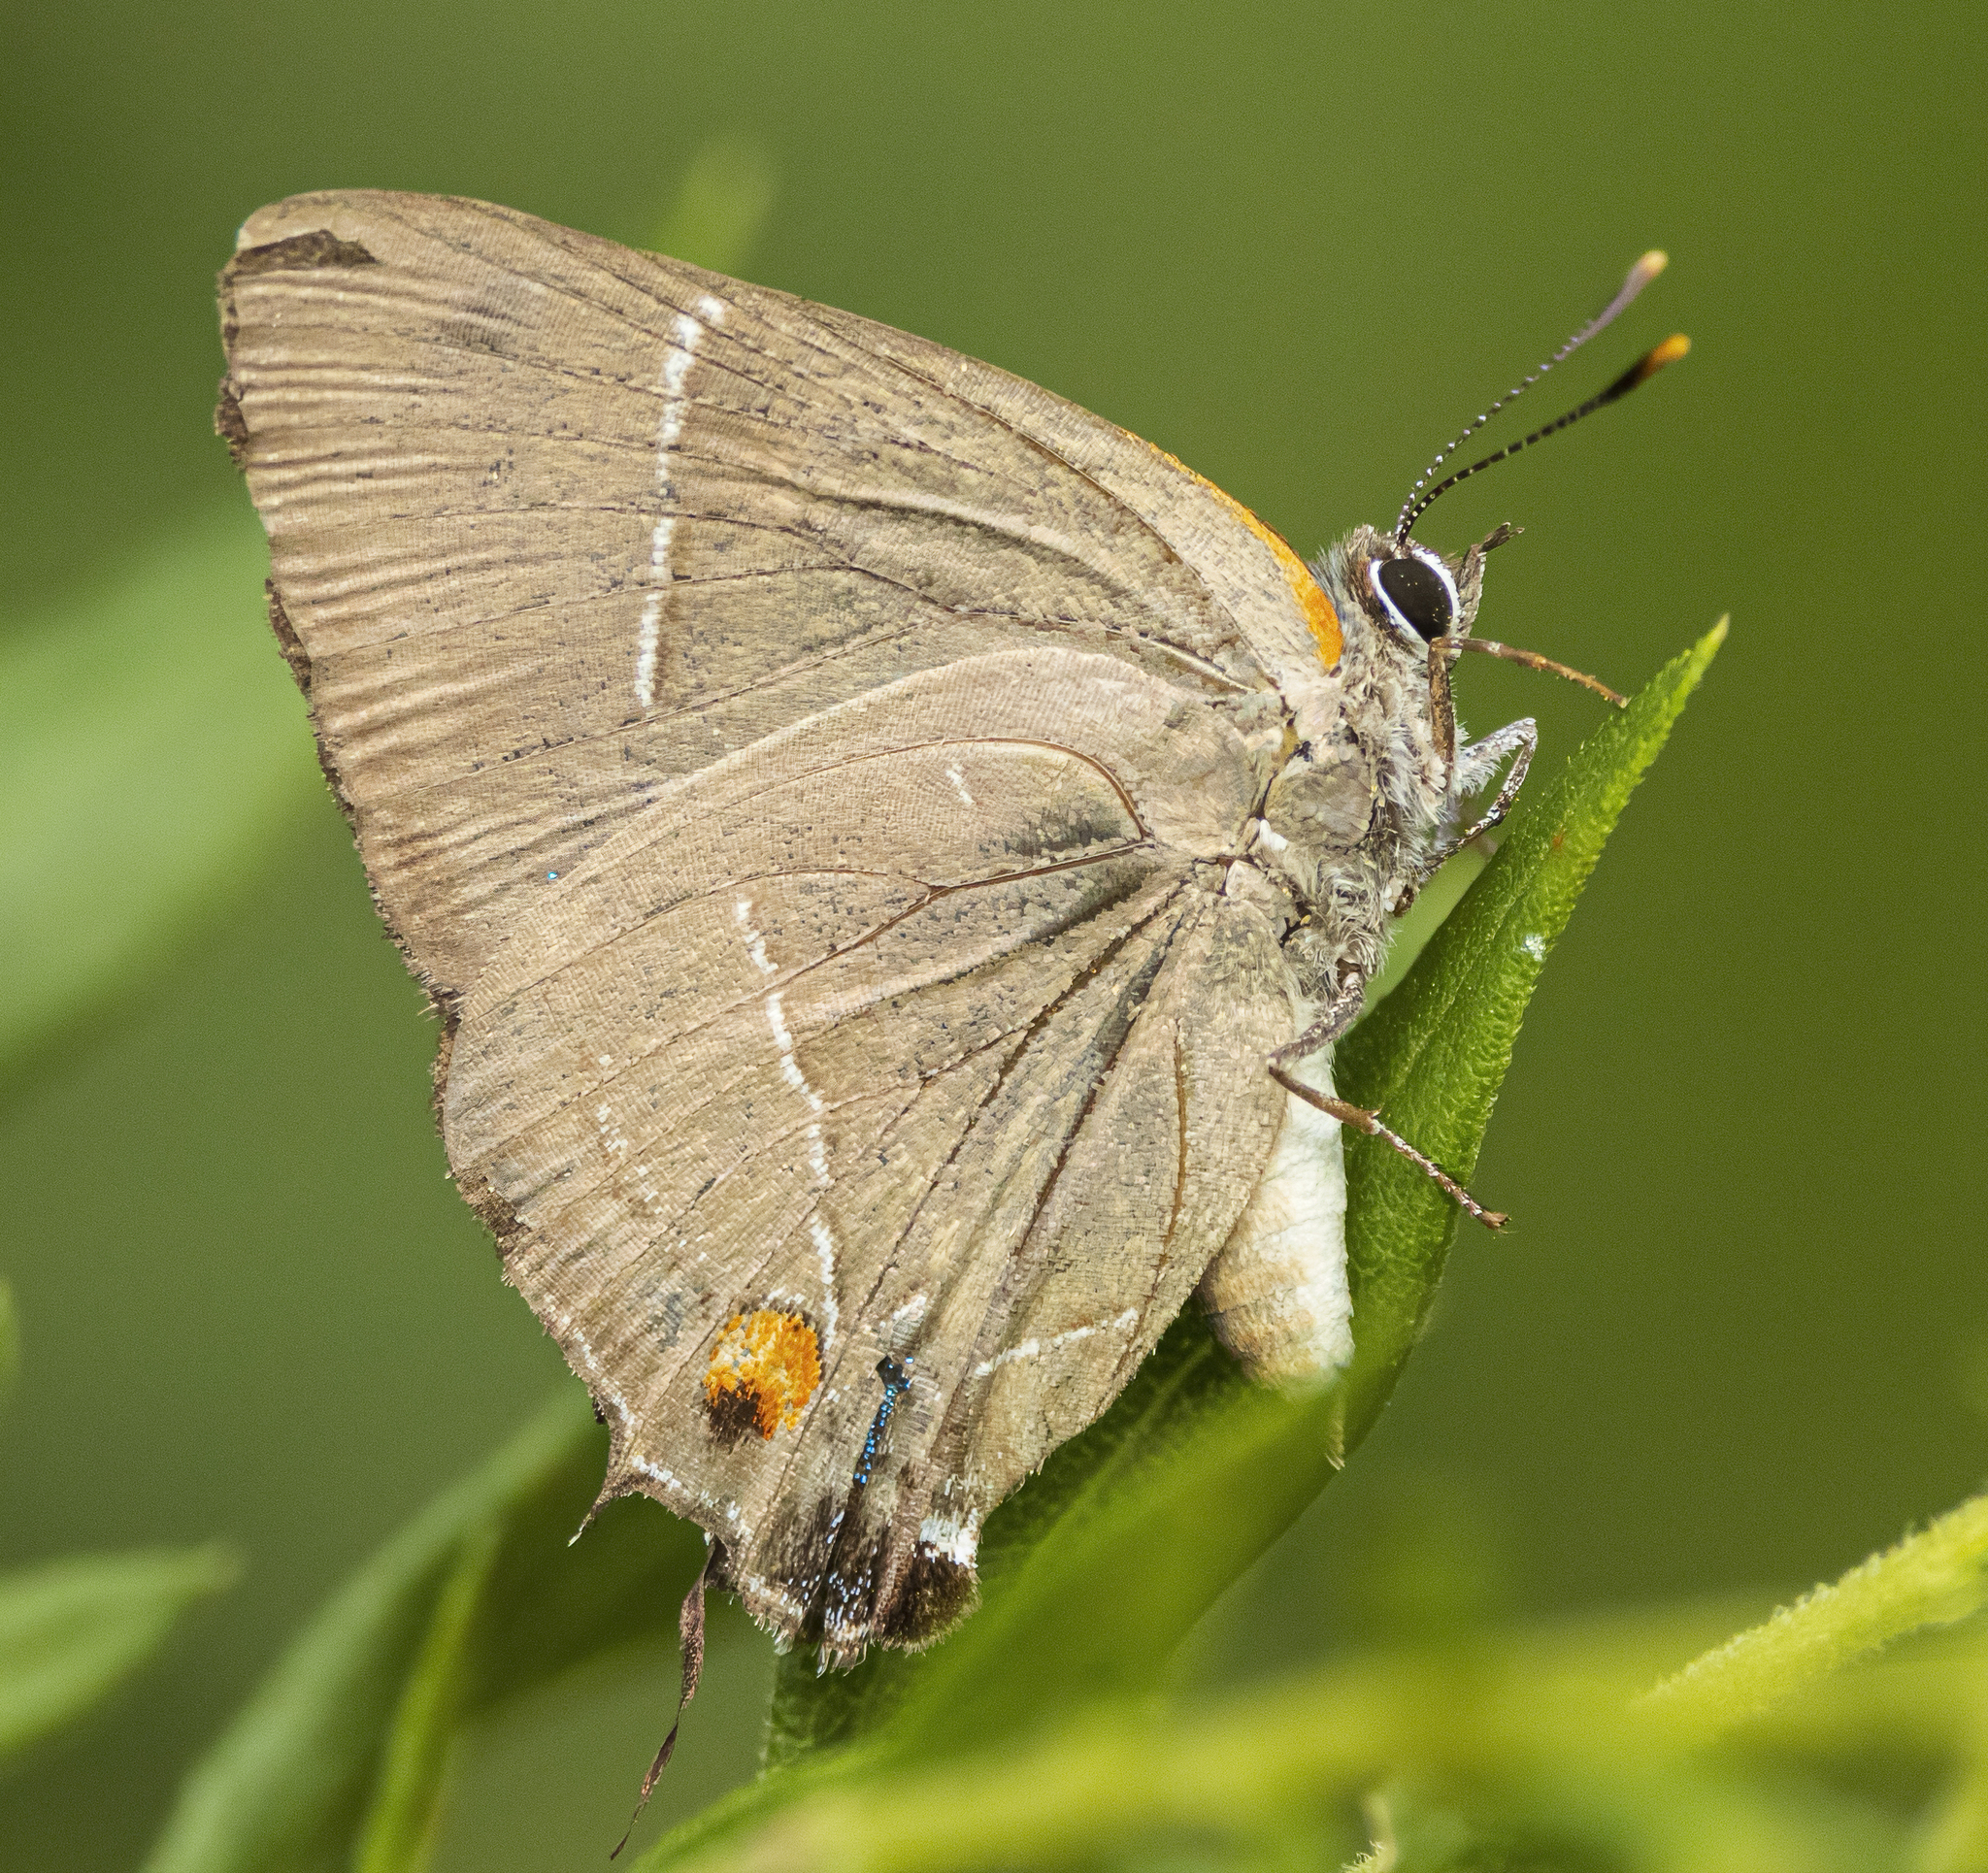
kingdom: Animalia
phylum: Arthropoda
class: Insecta
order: Lepidoptera
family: Lycaenidae
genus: Parrhasius
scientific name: Parrhasius m-album
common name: White m hairstreak
